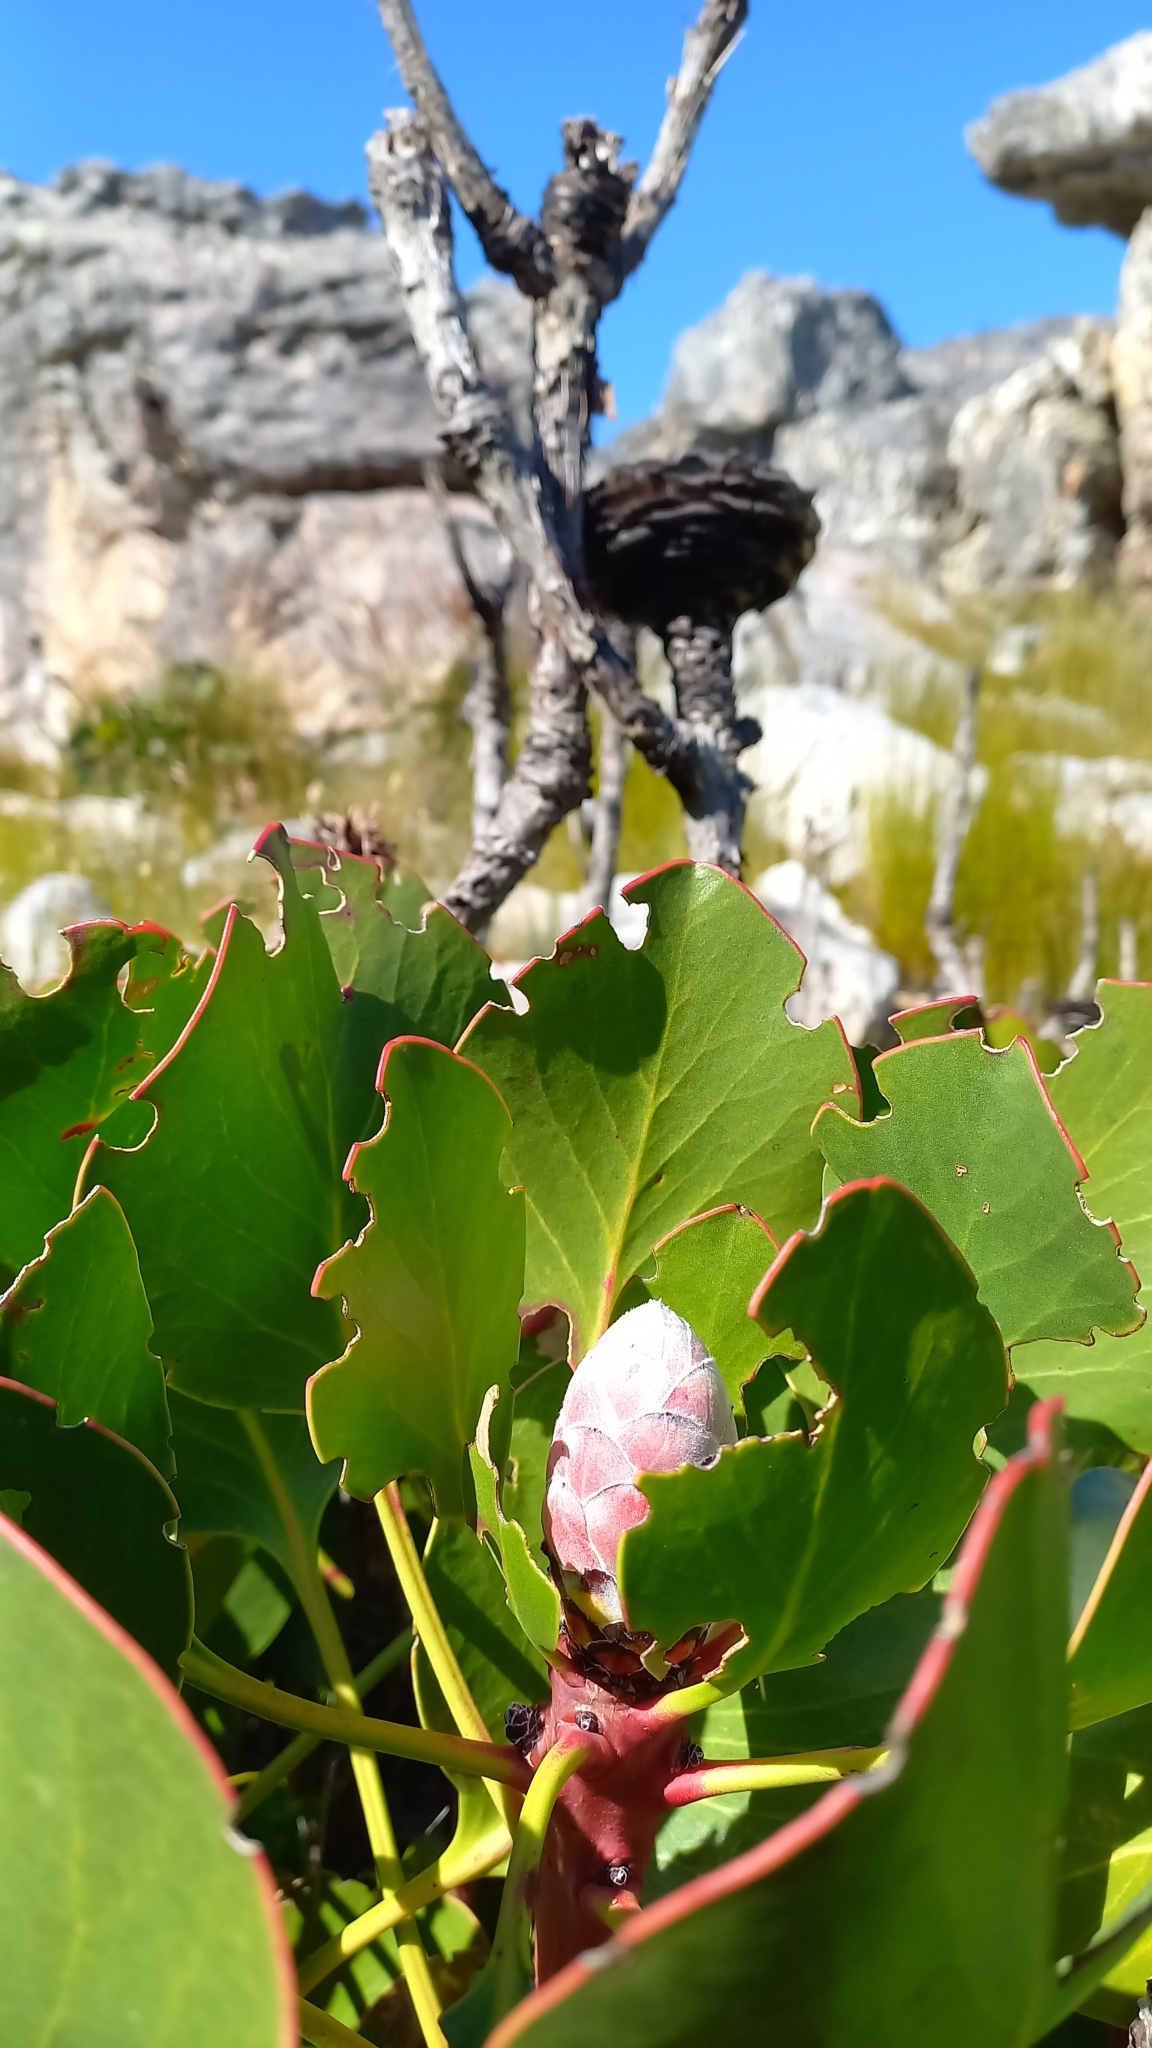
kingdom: Plantae
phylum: Tracheophyta
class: Magnoliopsida
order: Proteales
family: Proteaceae
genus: Protea
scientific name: Protea cynaroides
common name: King protea
